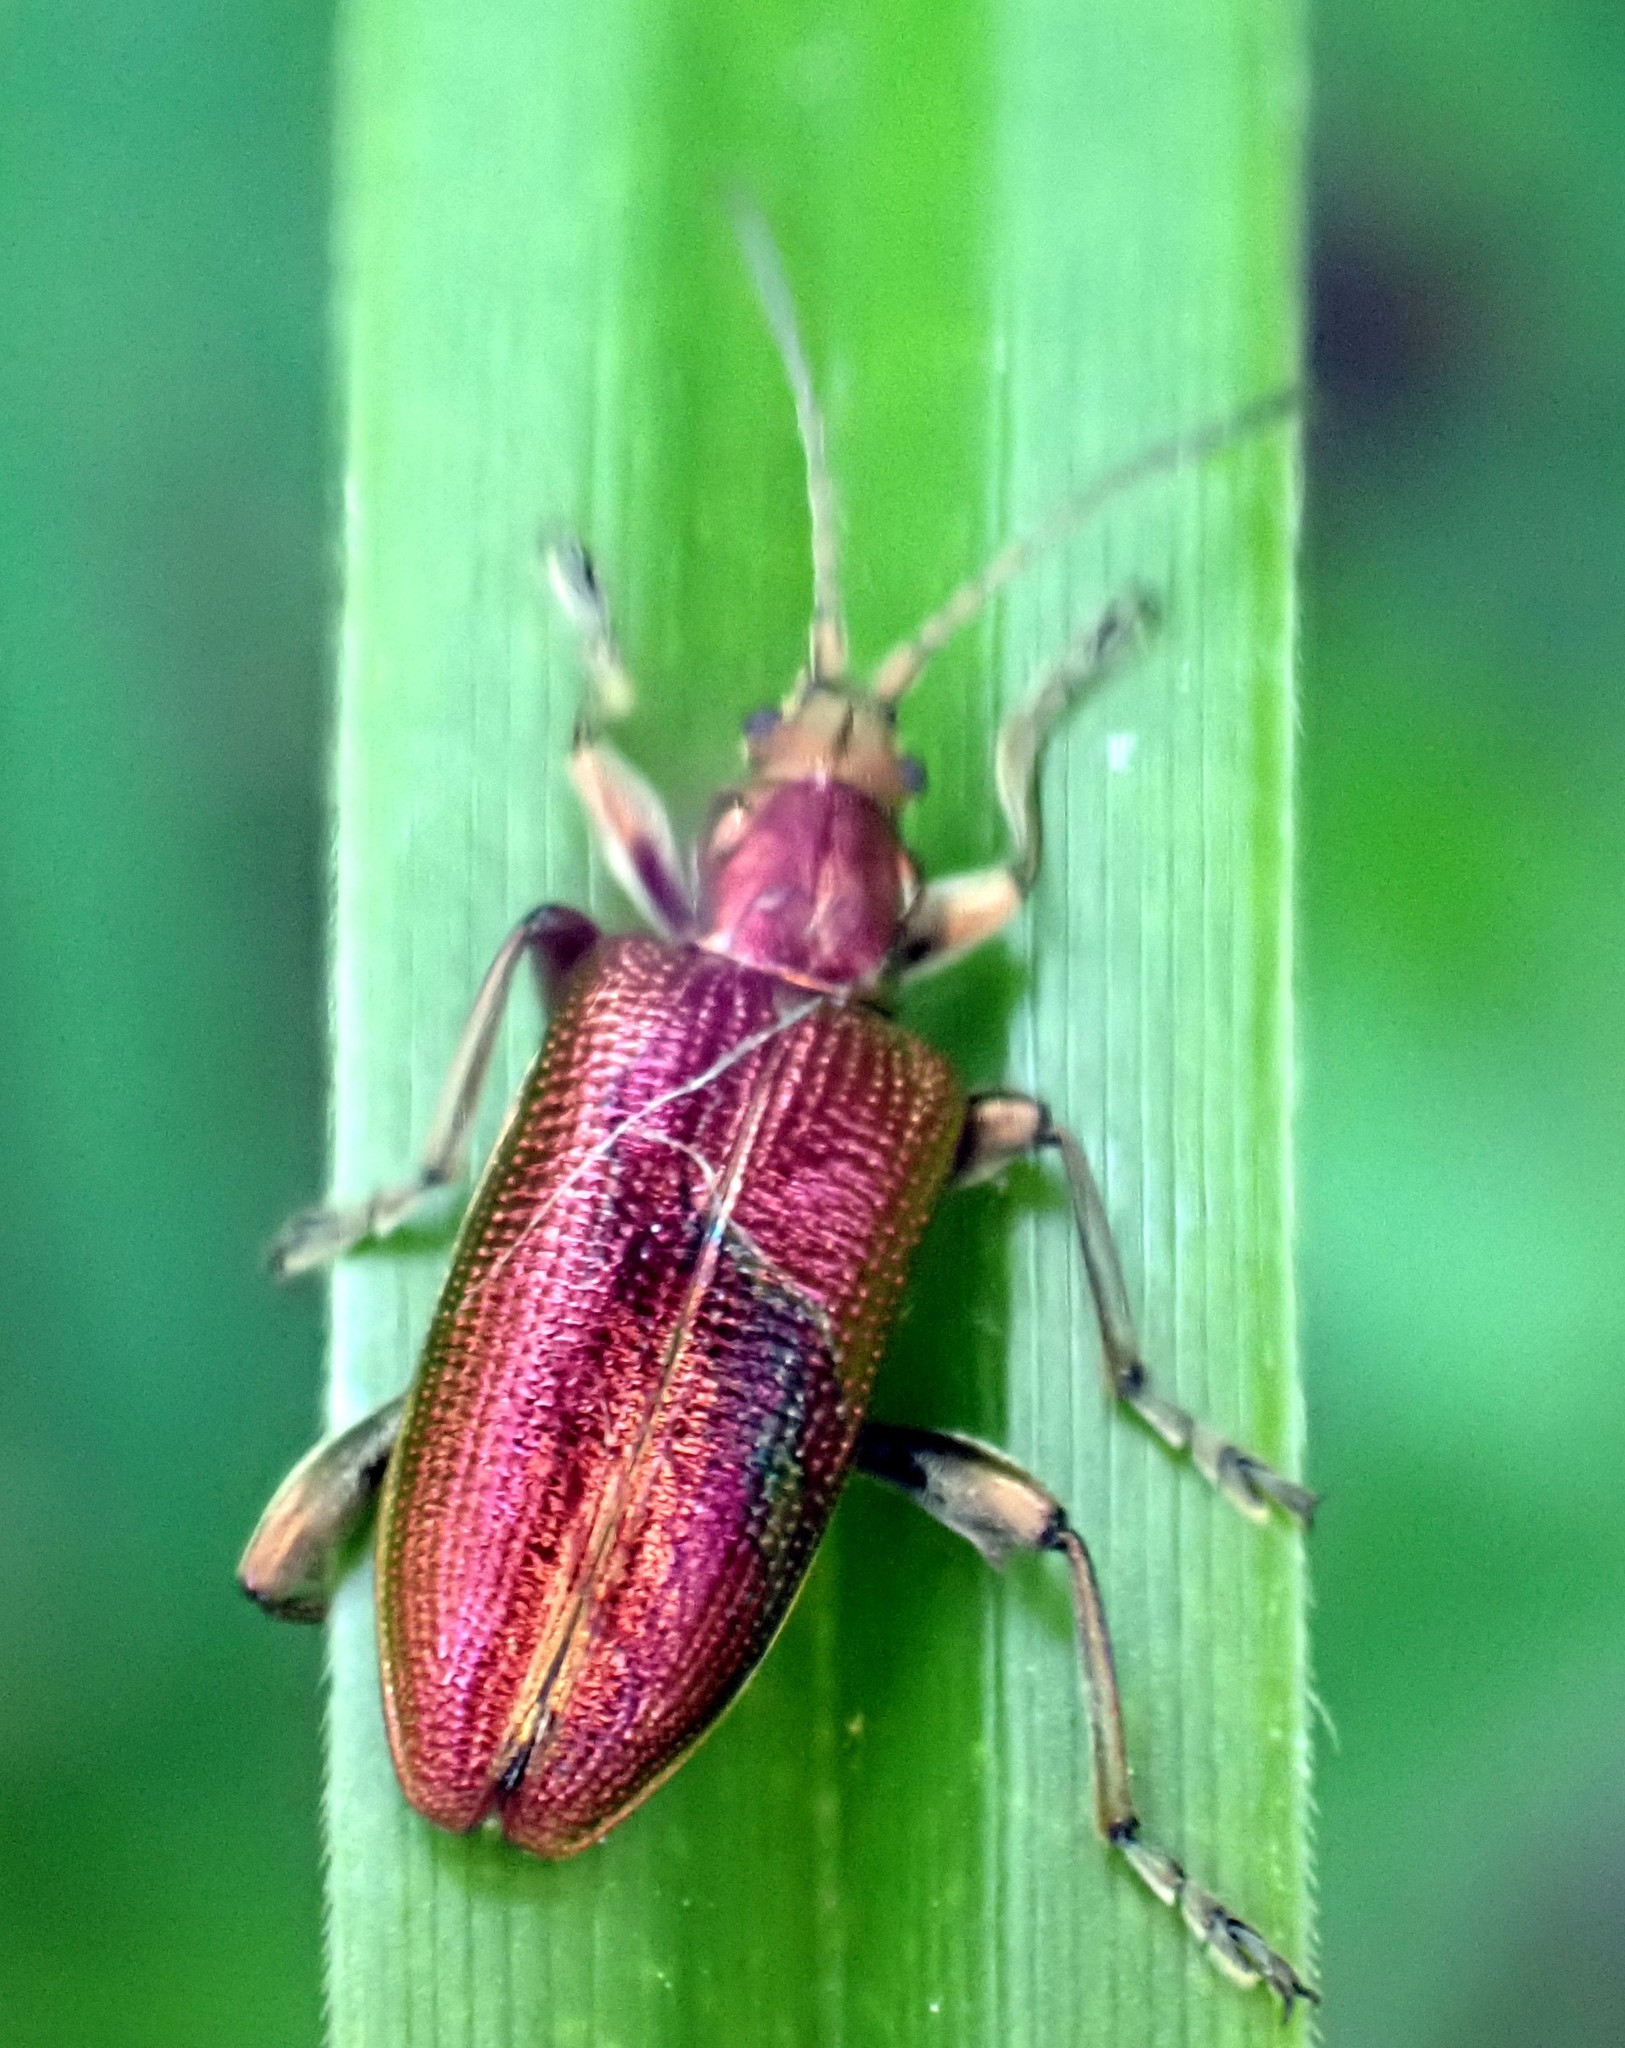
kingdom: Animalia
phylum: Arthropoda
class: Insecta
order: Coleoptera
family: Chrysomelidae
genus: Plateumaris
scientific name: Plateumaris sericea
